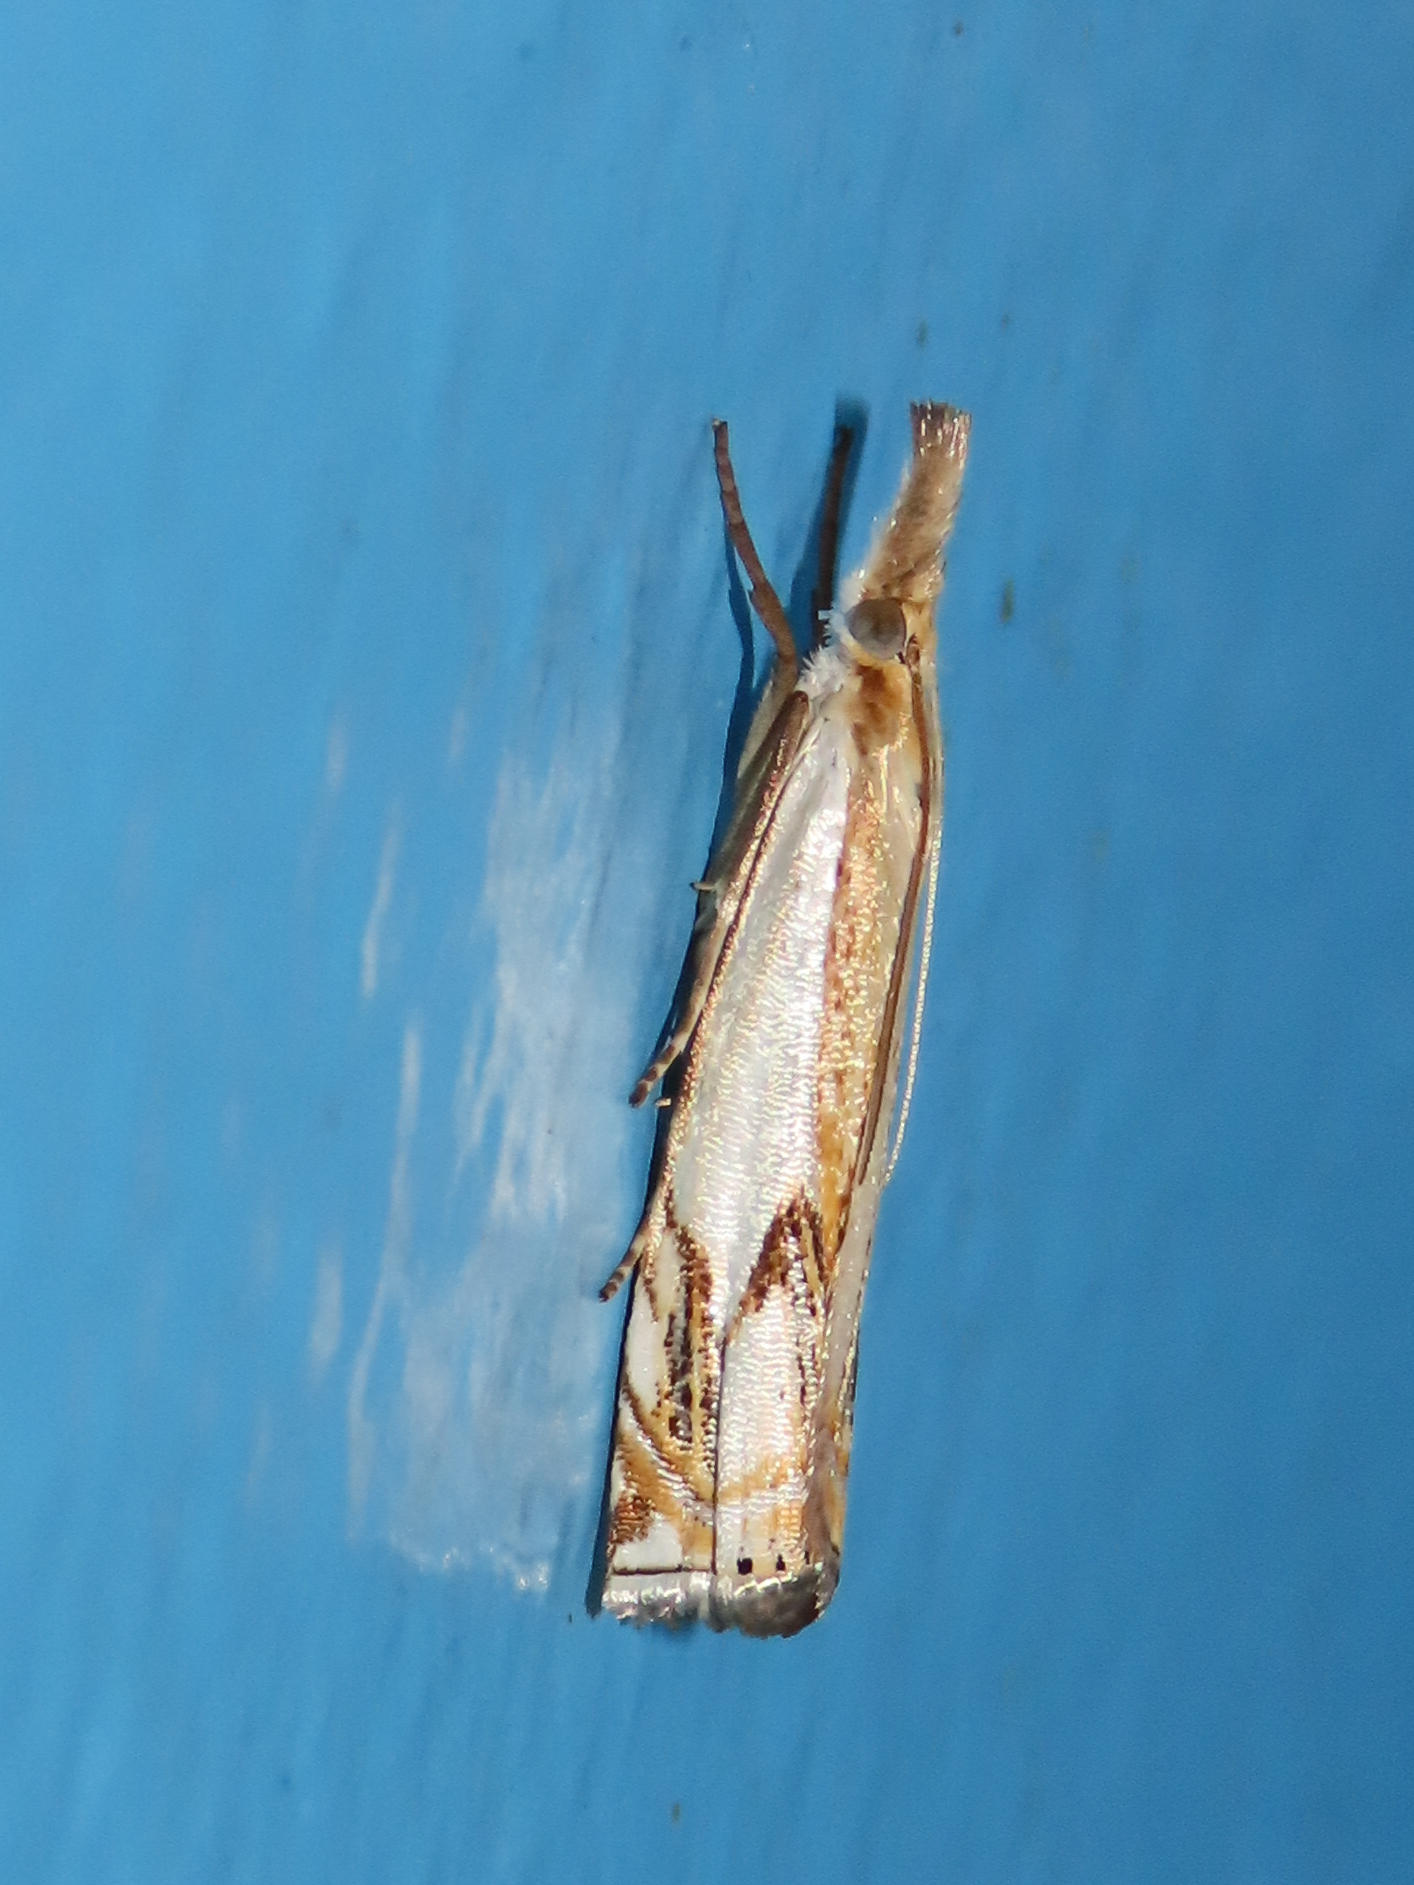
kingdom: Animalia
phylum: Arthropoda
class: Insecta
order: Lepidoptera
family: Crambidae
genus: Crambus
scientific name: Crambus agitatellus
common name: Double-banded grass-veneer
